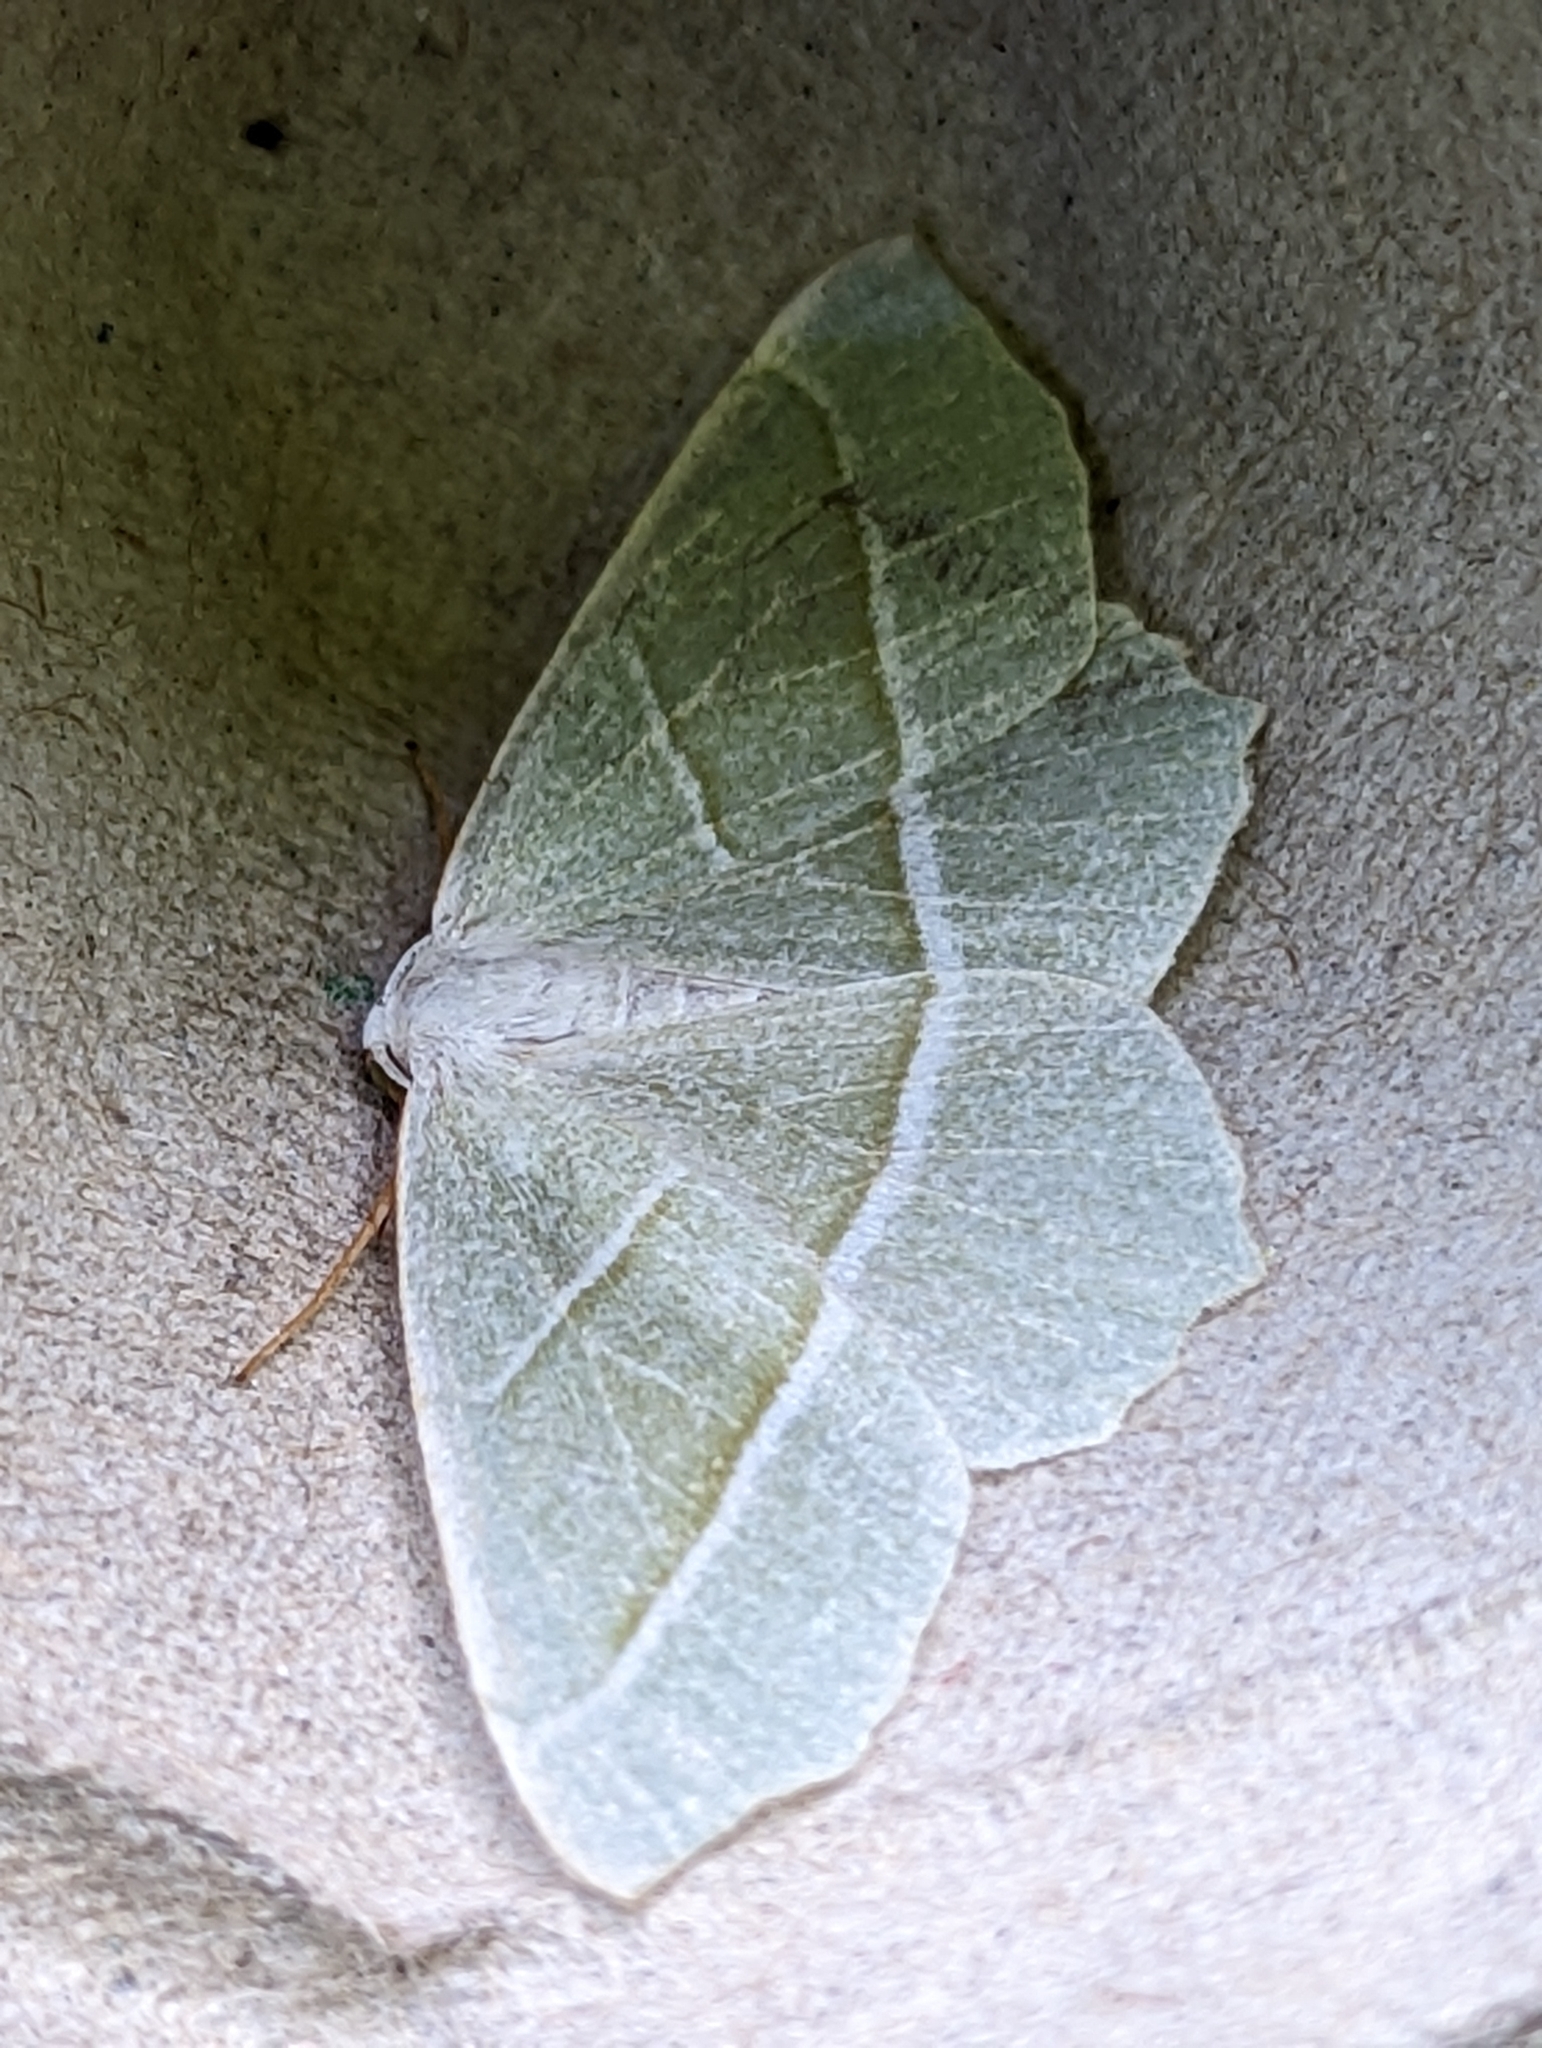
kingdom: Animalia
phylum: Arthropoda
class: Insecta
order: Lepidoptera
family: Geometridae
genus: Campaea
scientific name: Campaea margaritaria
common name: Light emerald
